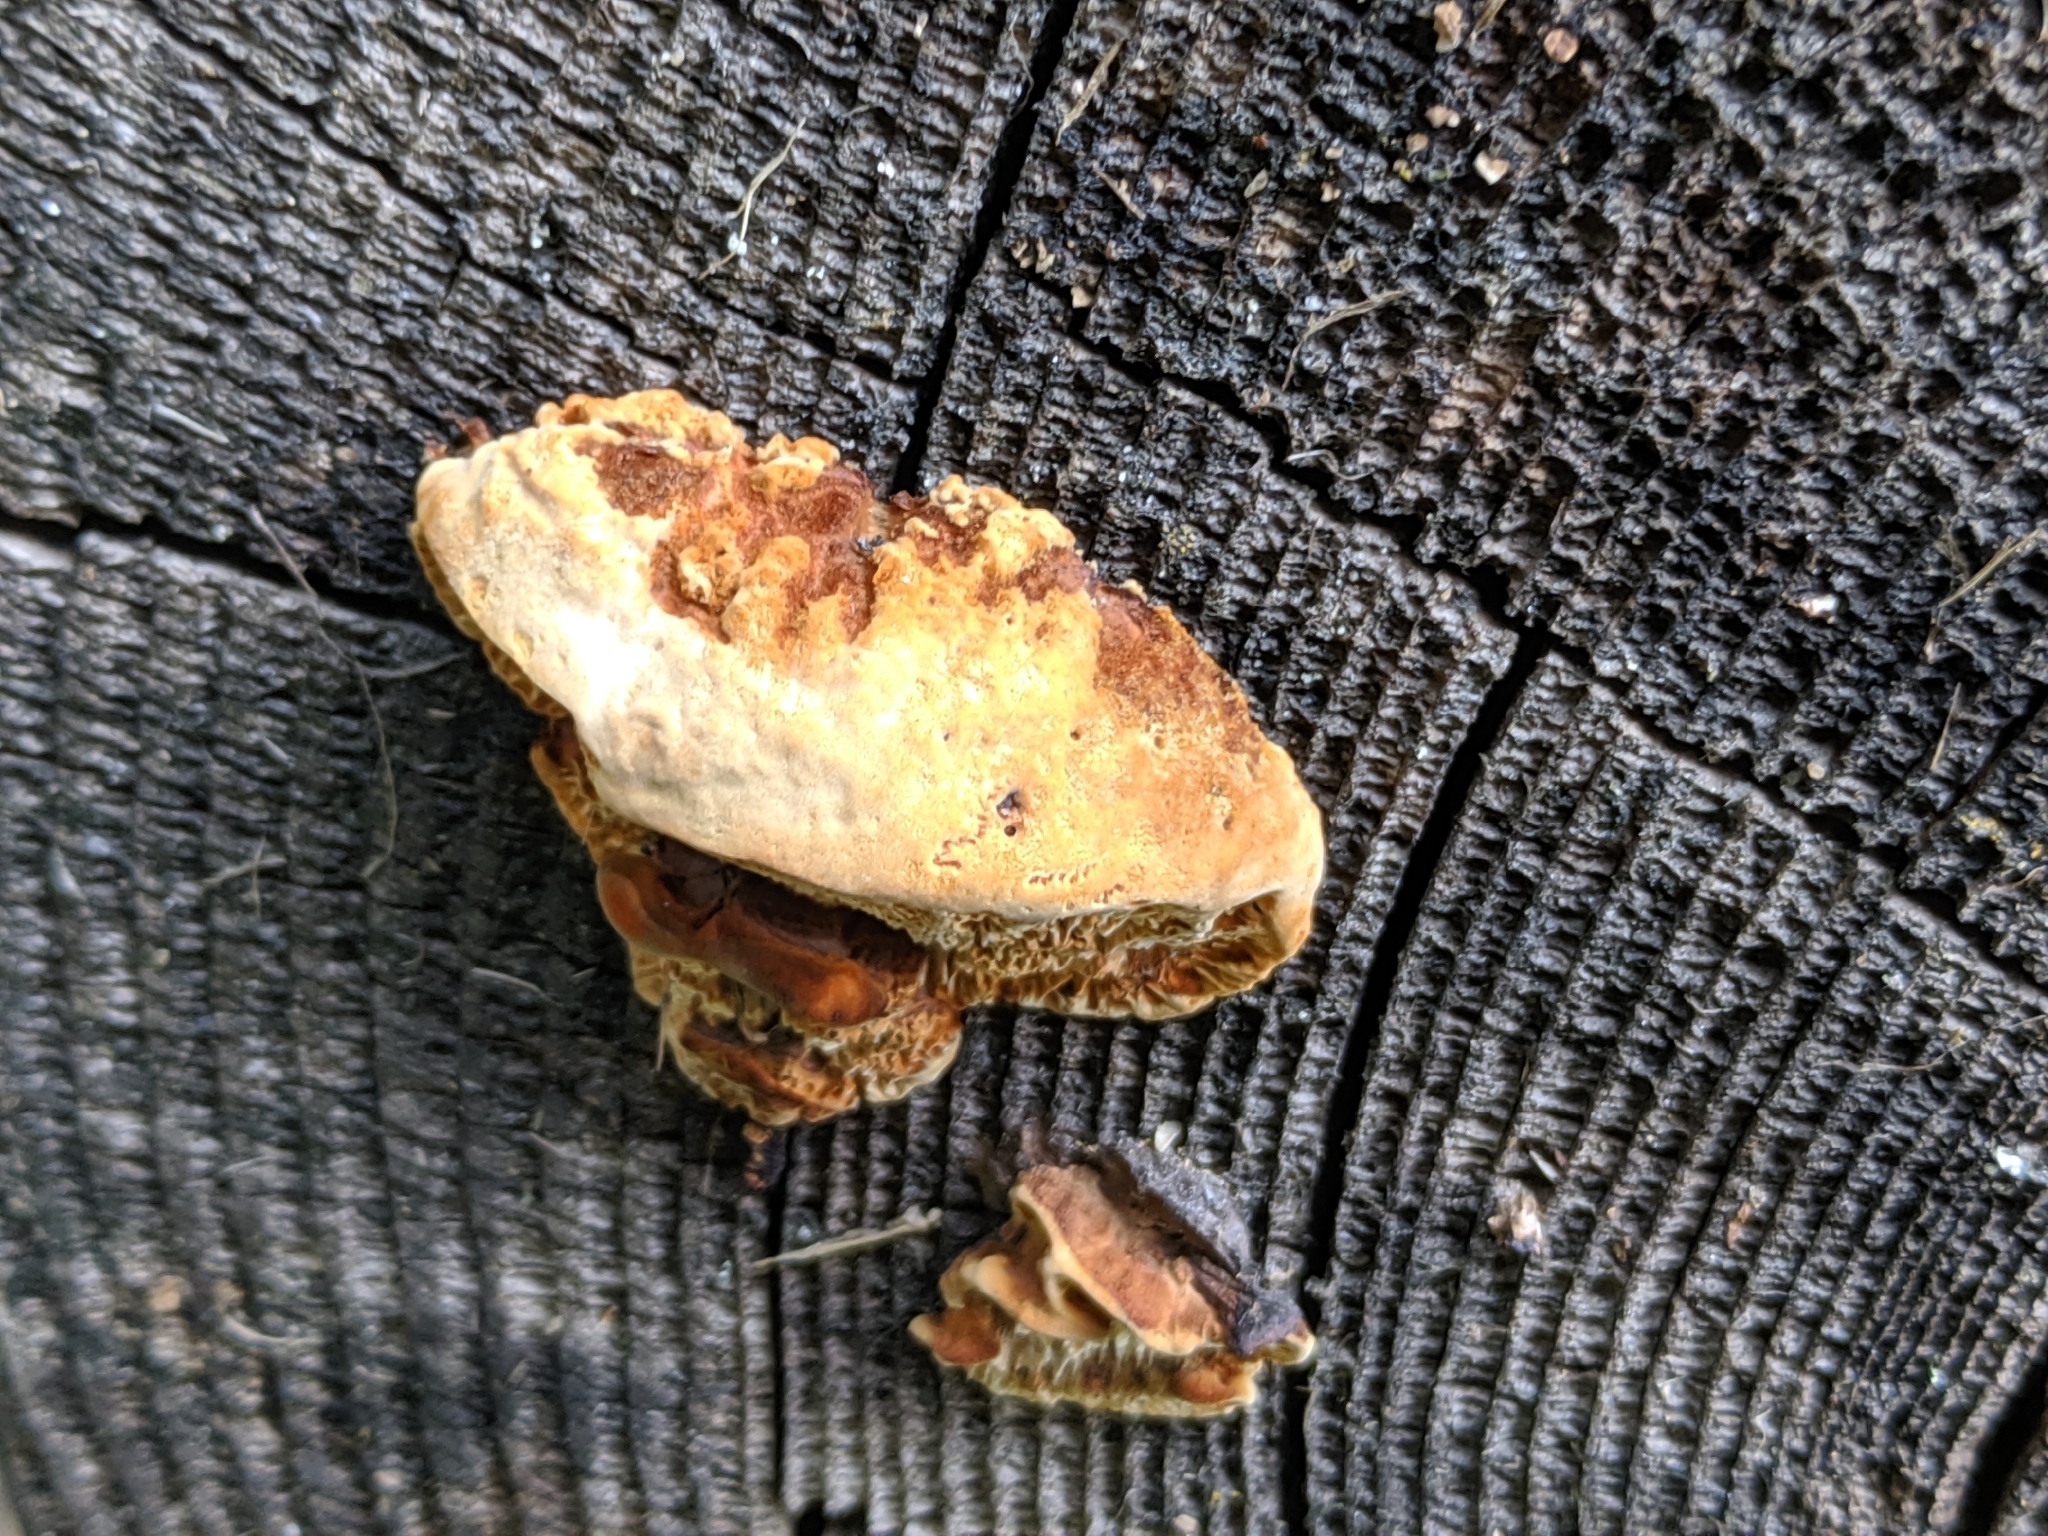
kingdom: Fungi
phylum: Basidiomycota
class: Agaricomycetes
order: Gloeophyllales
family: Gloeophyllaceae
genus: Gloeophyllum
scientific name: Gloeophyllum odoratum
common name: Anise mazegill
